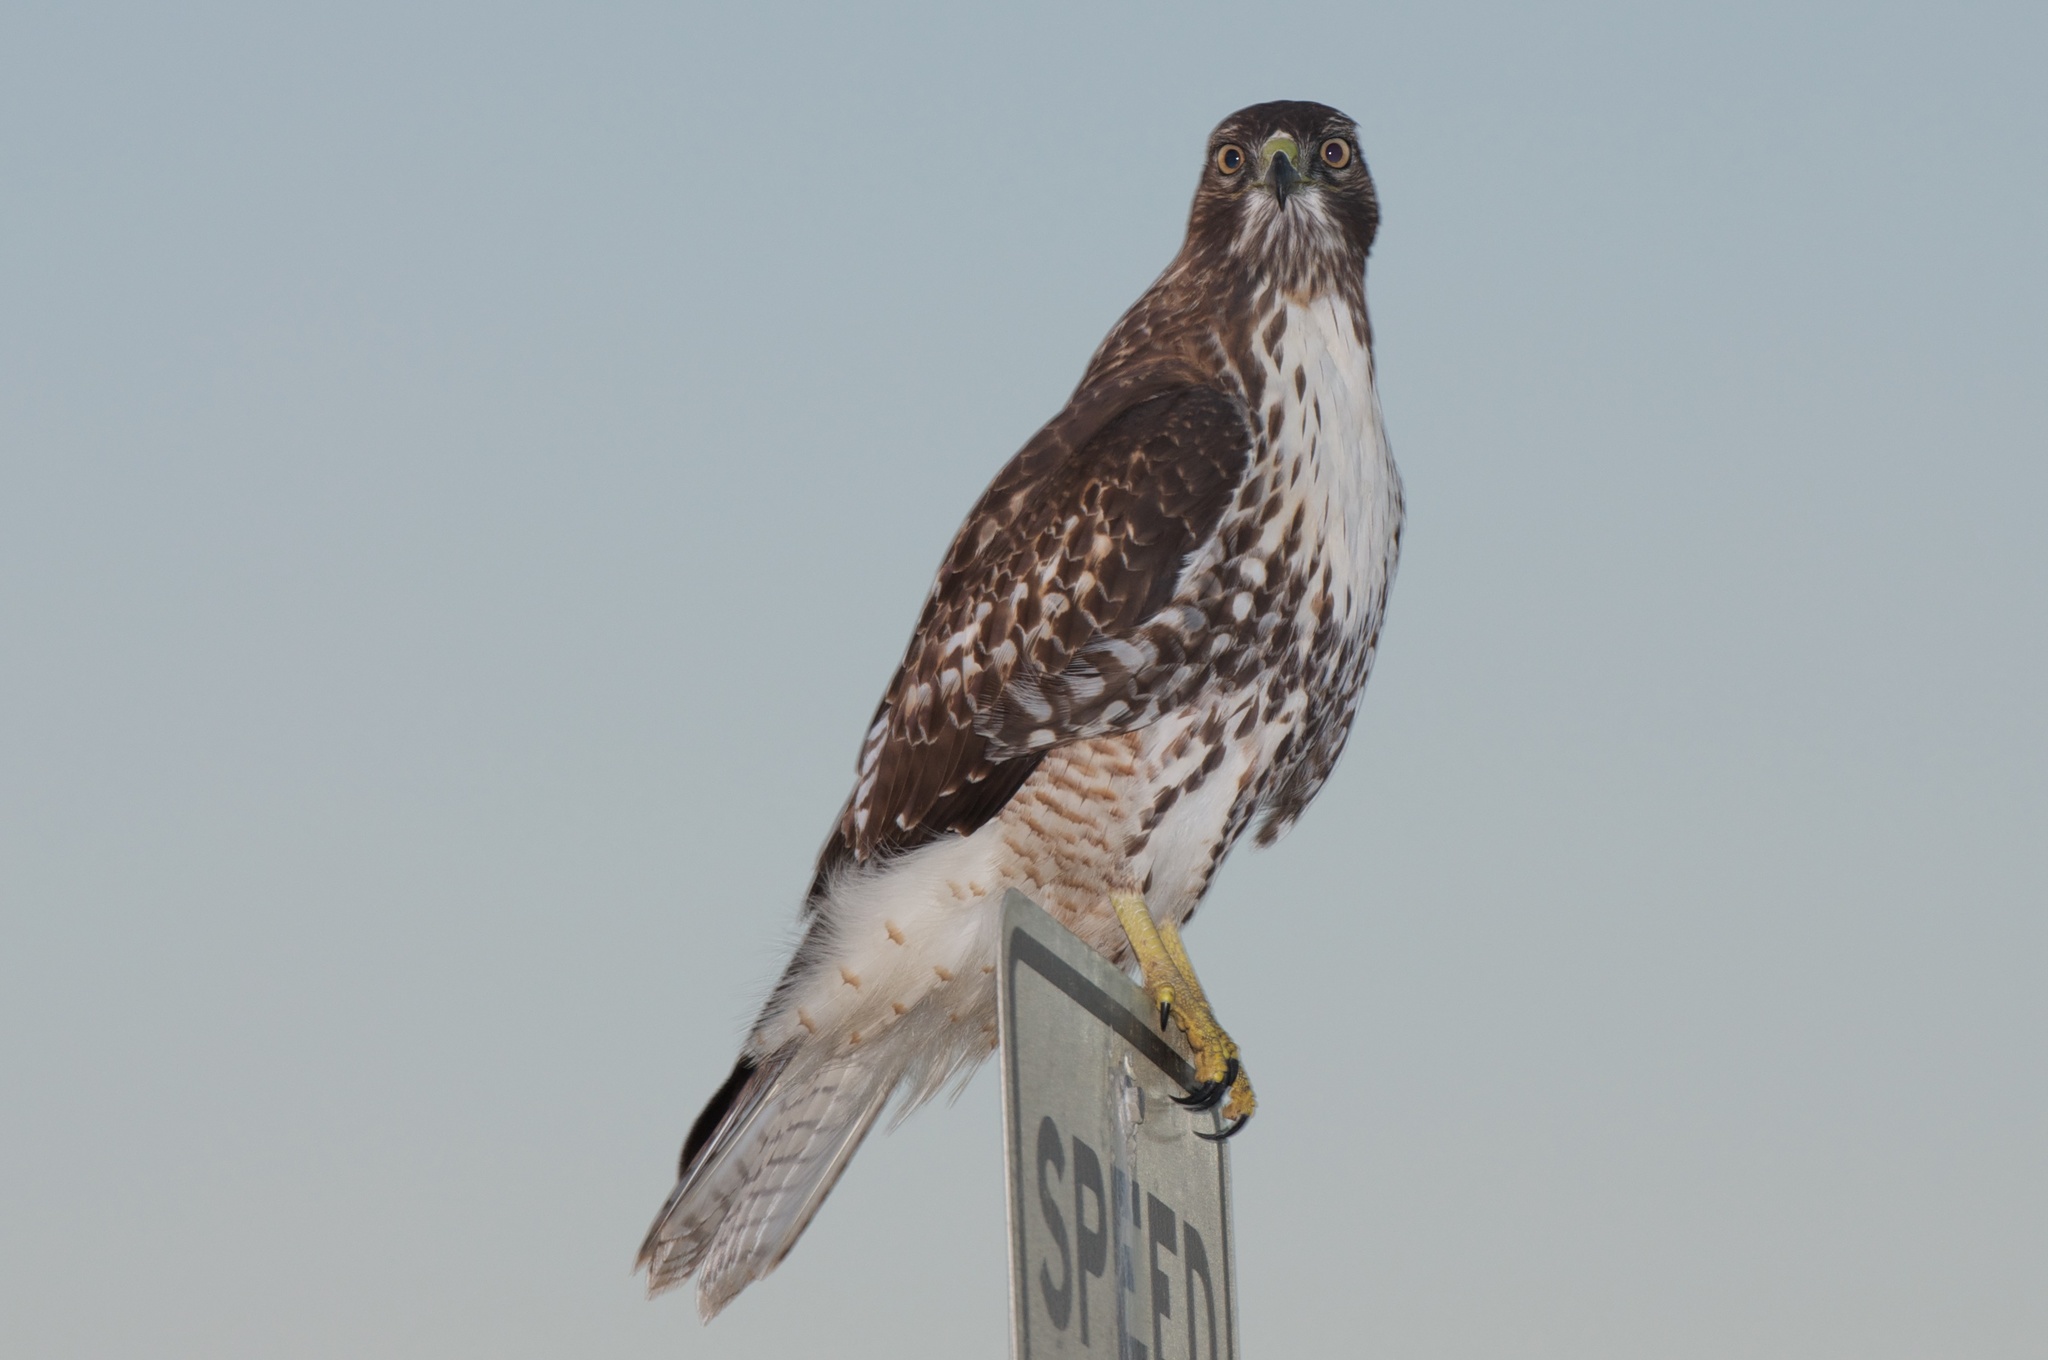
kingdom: Animalia
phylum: Chordata
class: Aves
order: Accipitriformes
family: Accipitridae
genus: Buteo
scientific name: Buteo jamaicensis
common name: Red-tailed hawk
